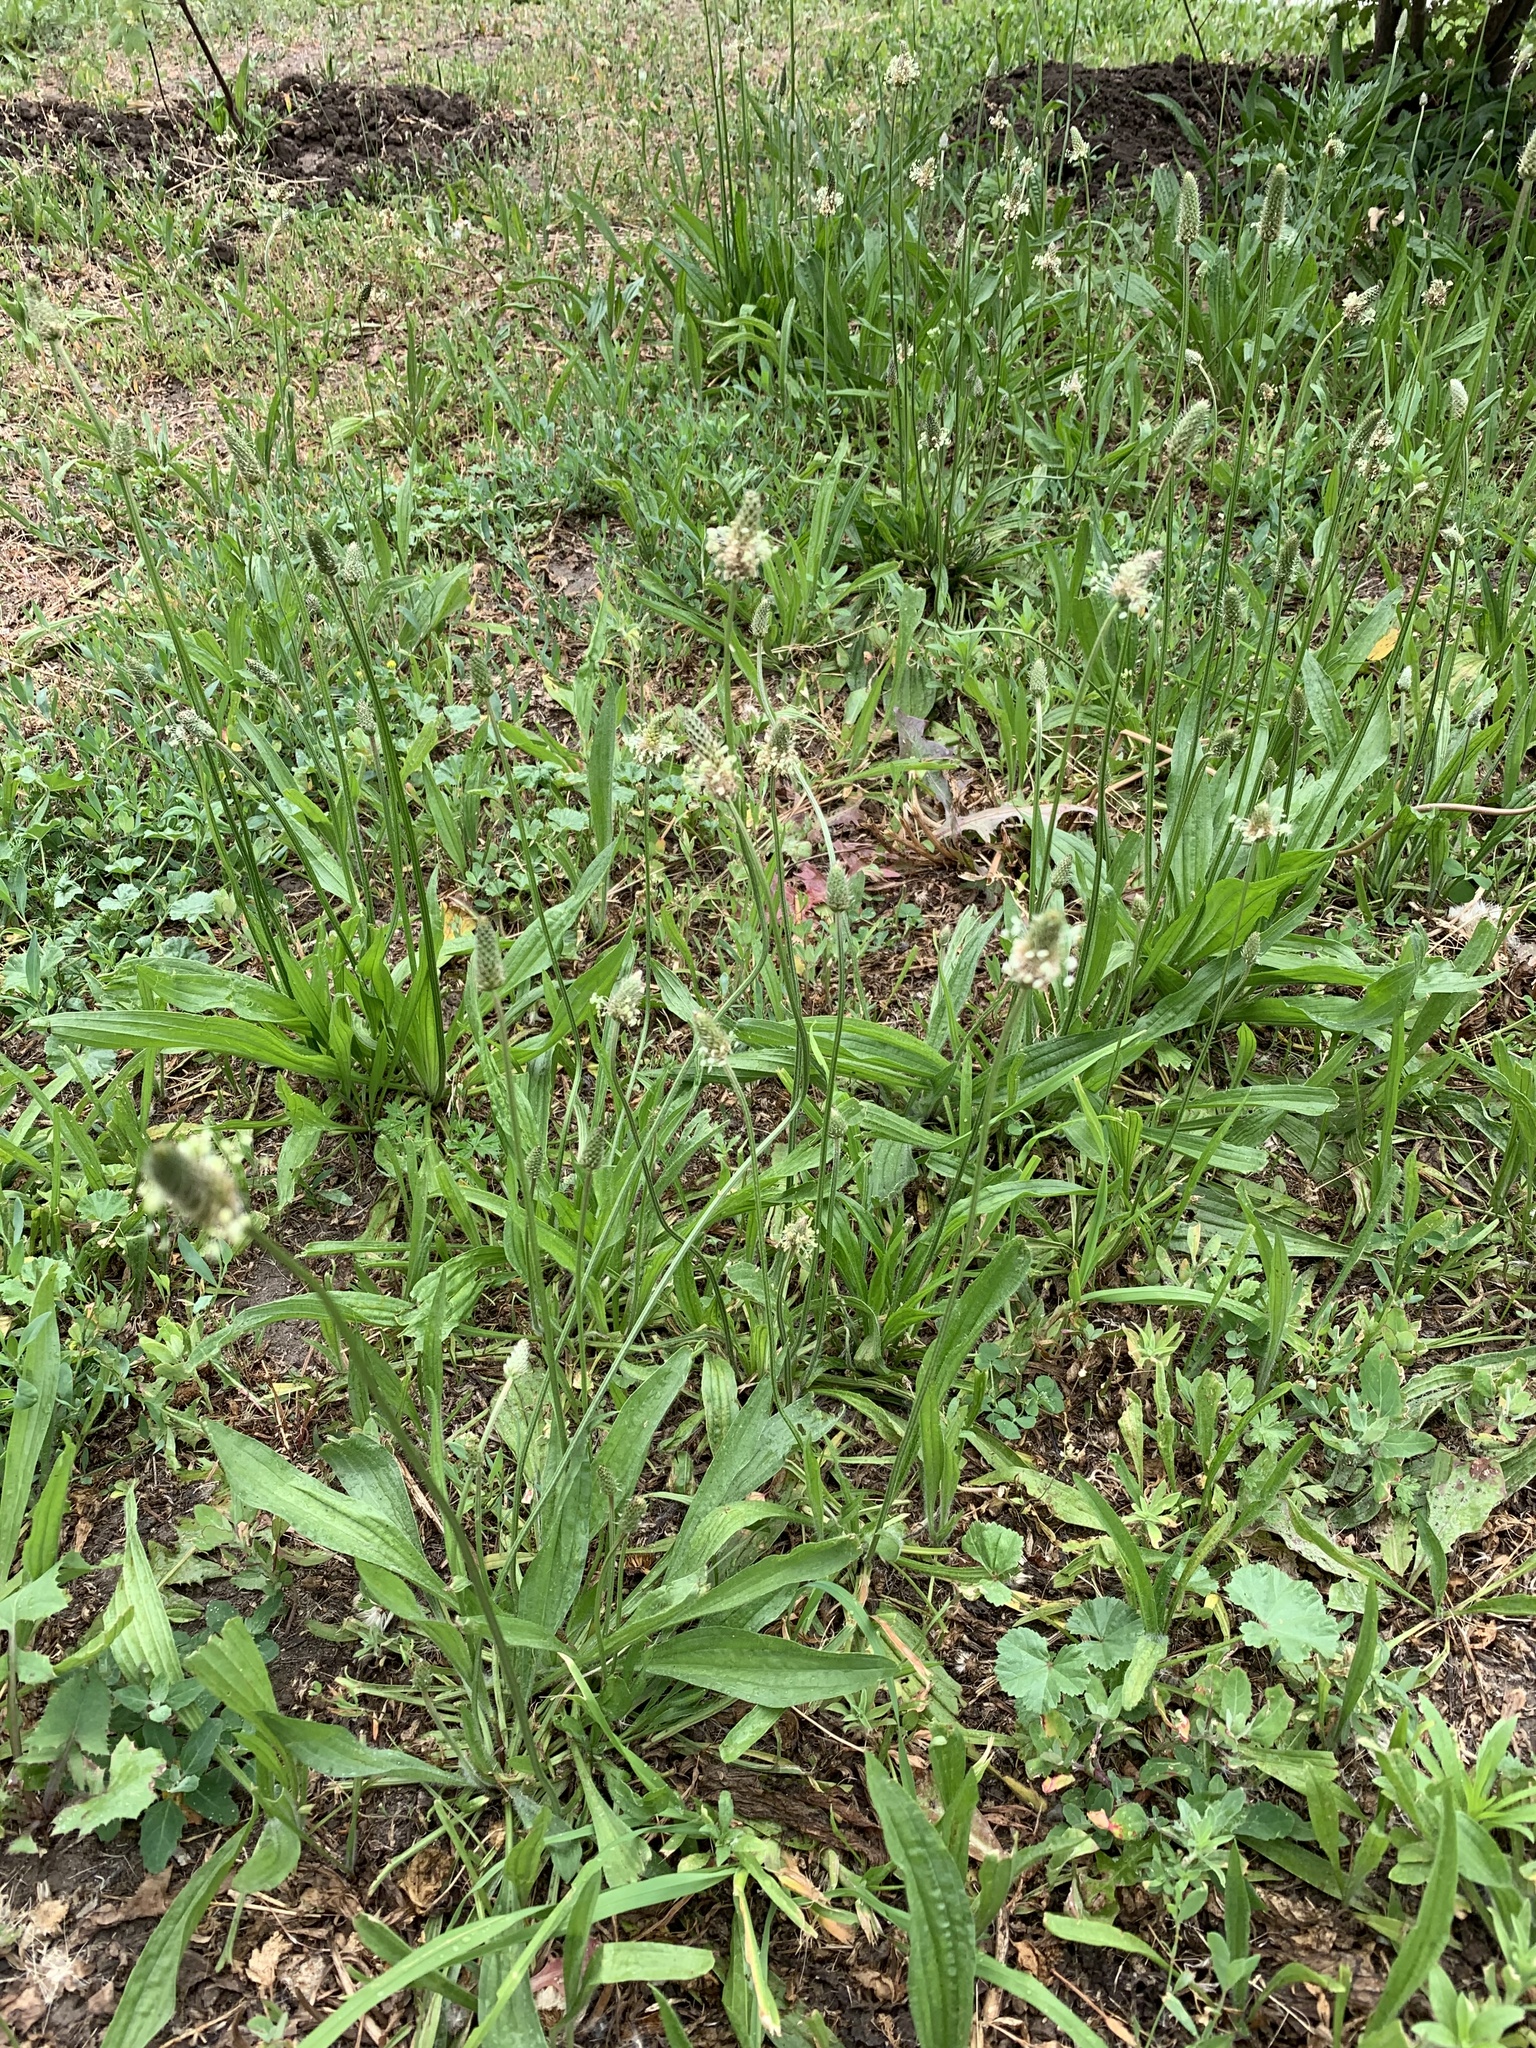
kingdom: Plantae
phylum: Tracheophyta
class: Magnoliopsida
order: Lamiales
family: Plantaginaceae
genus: Plantago
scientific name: Plantago lanceolata
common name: Ribwort plantain
